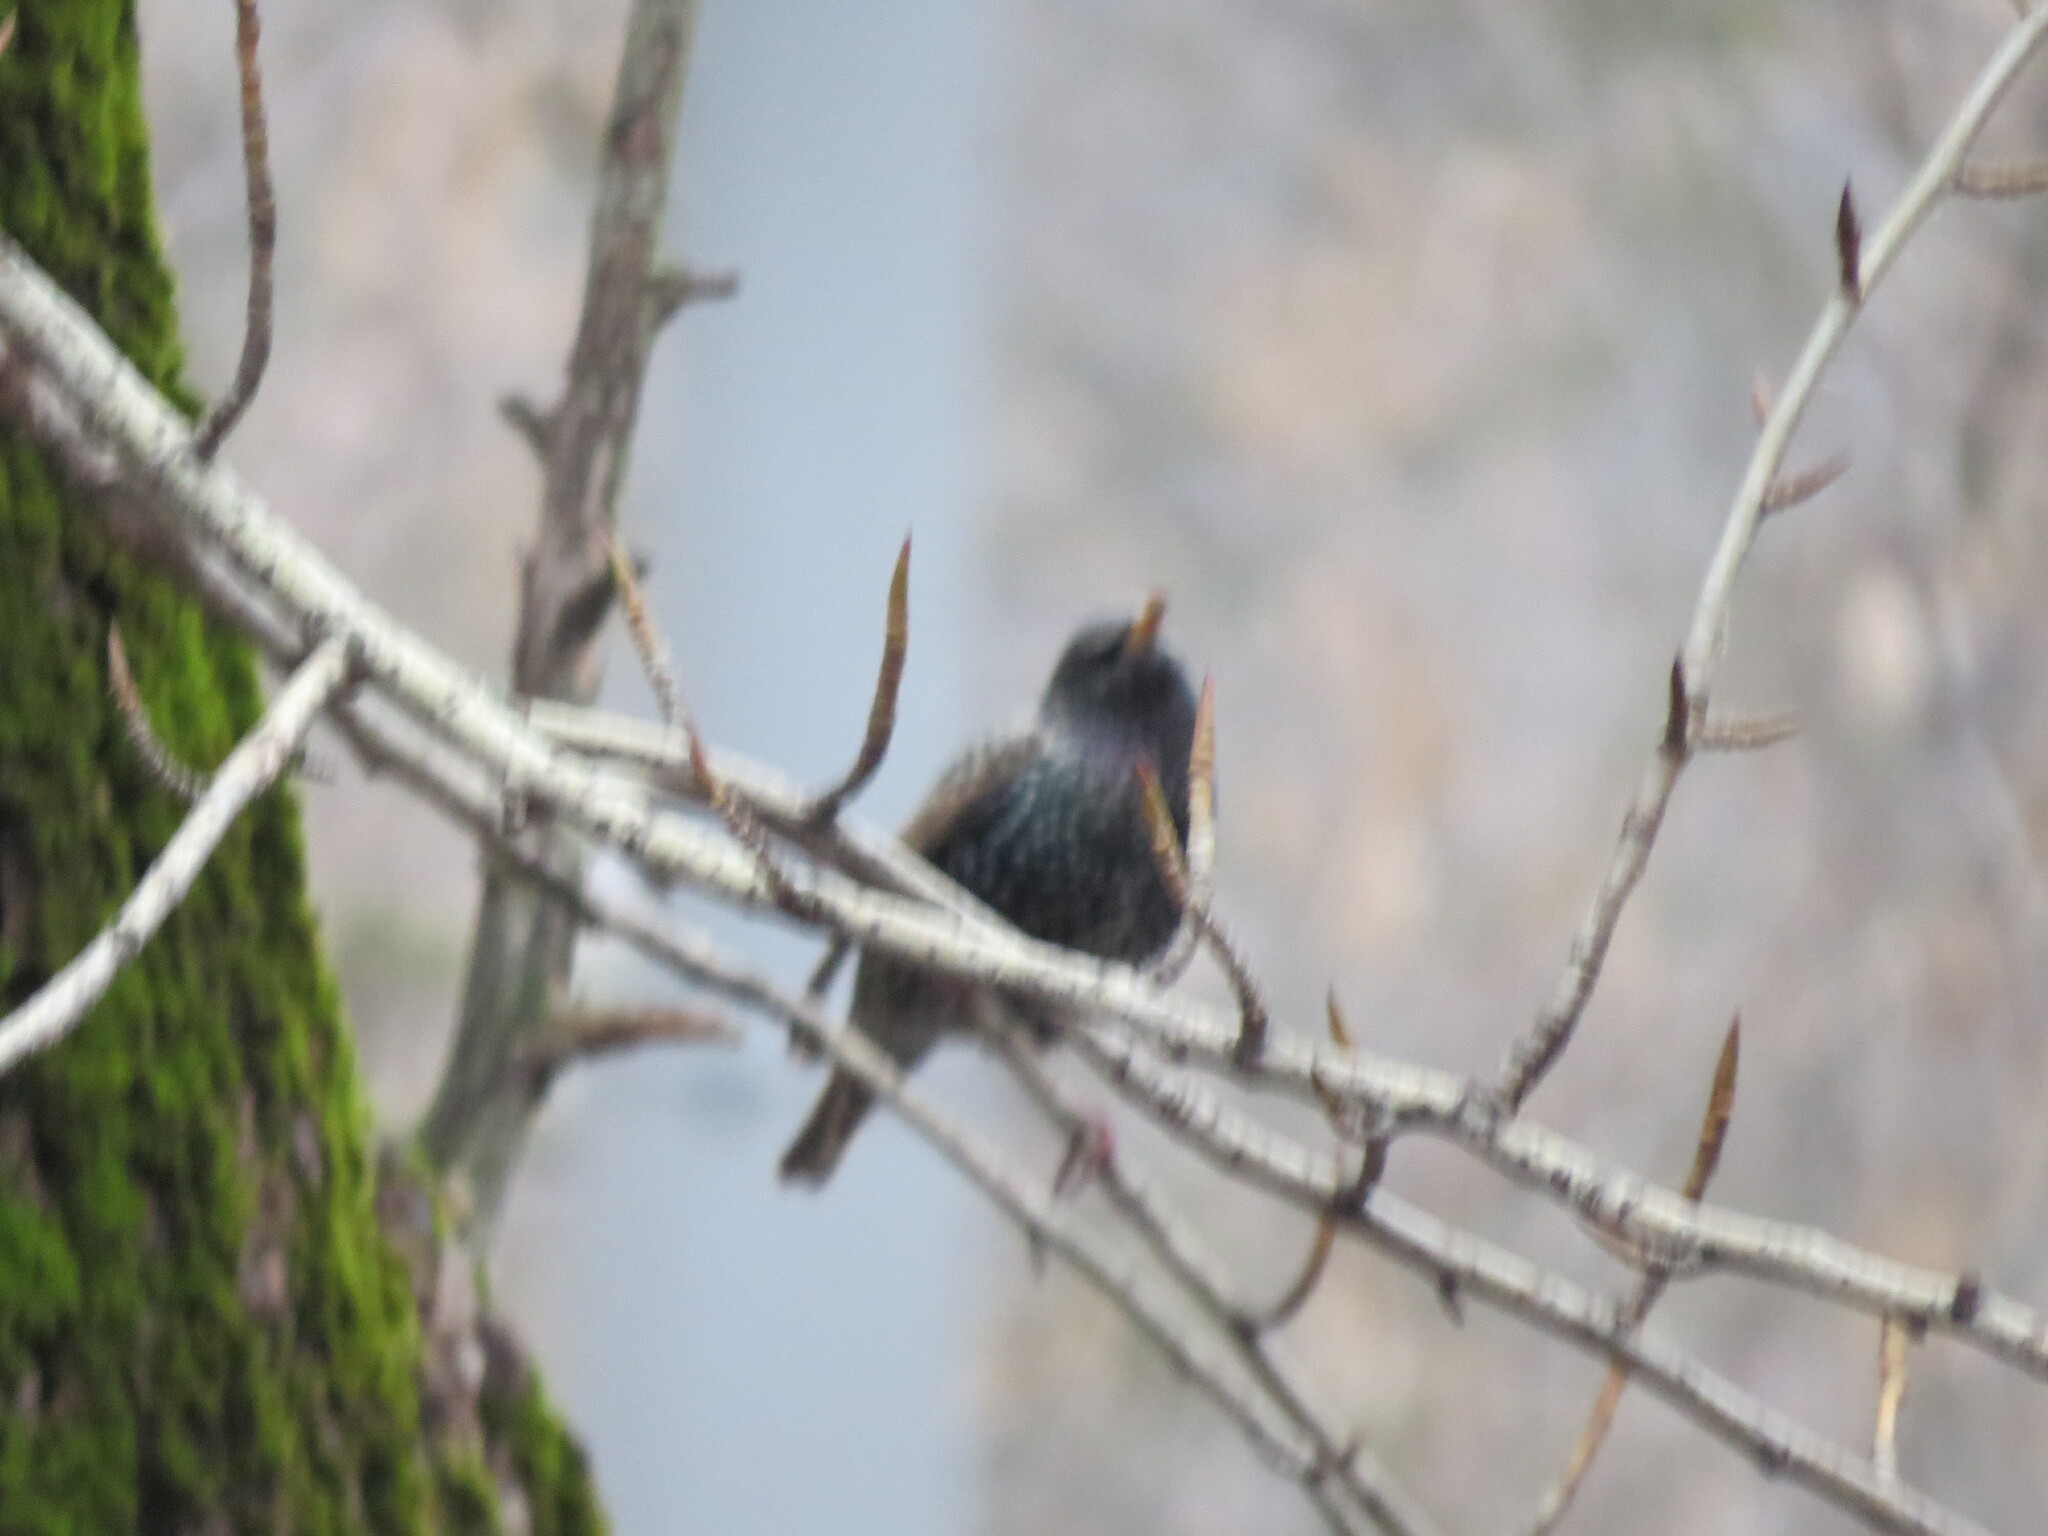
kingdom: Animalia
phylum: Chordata
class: Aves
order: Passeriformes
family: Sturnidae
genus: Sturnus
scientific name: Sturnus vulgaris
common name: Common starling
